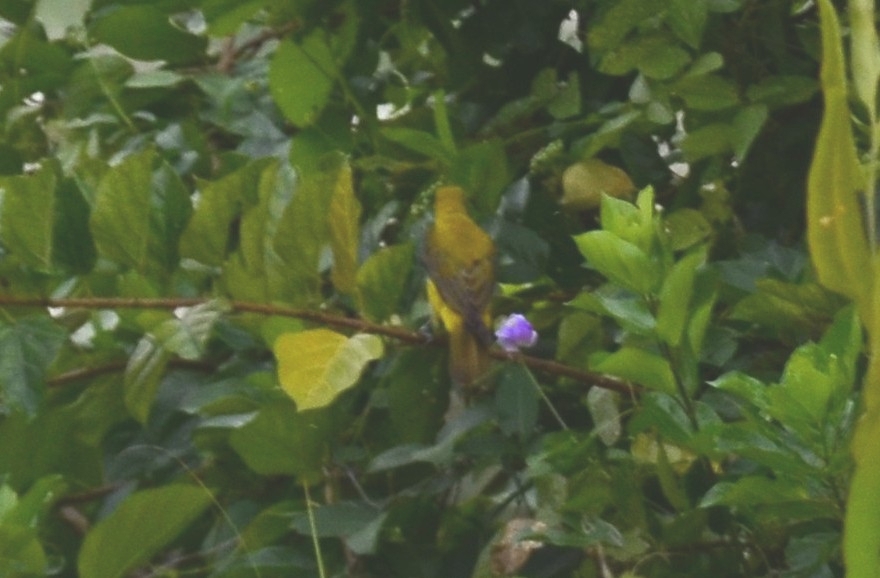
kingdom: Animalia
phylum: Chordata
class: Aves
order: Passeriformes
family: Oriolidae
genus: Oriolus
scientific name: Oriolus kundoo
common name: Indian golden oriole
